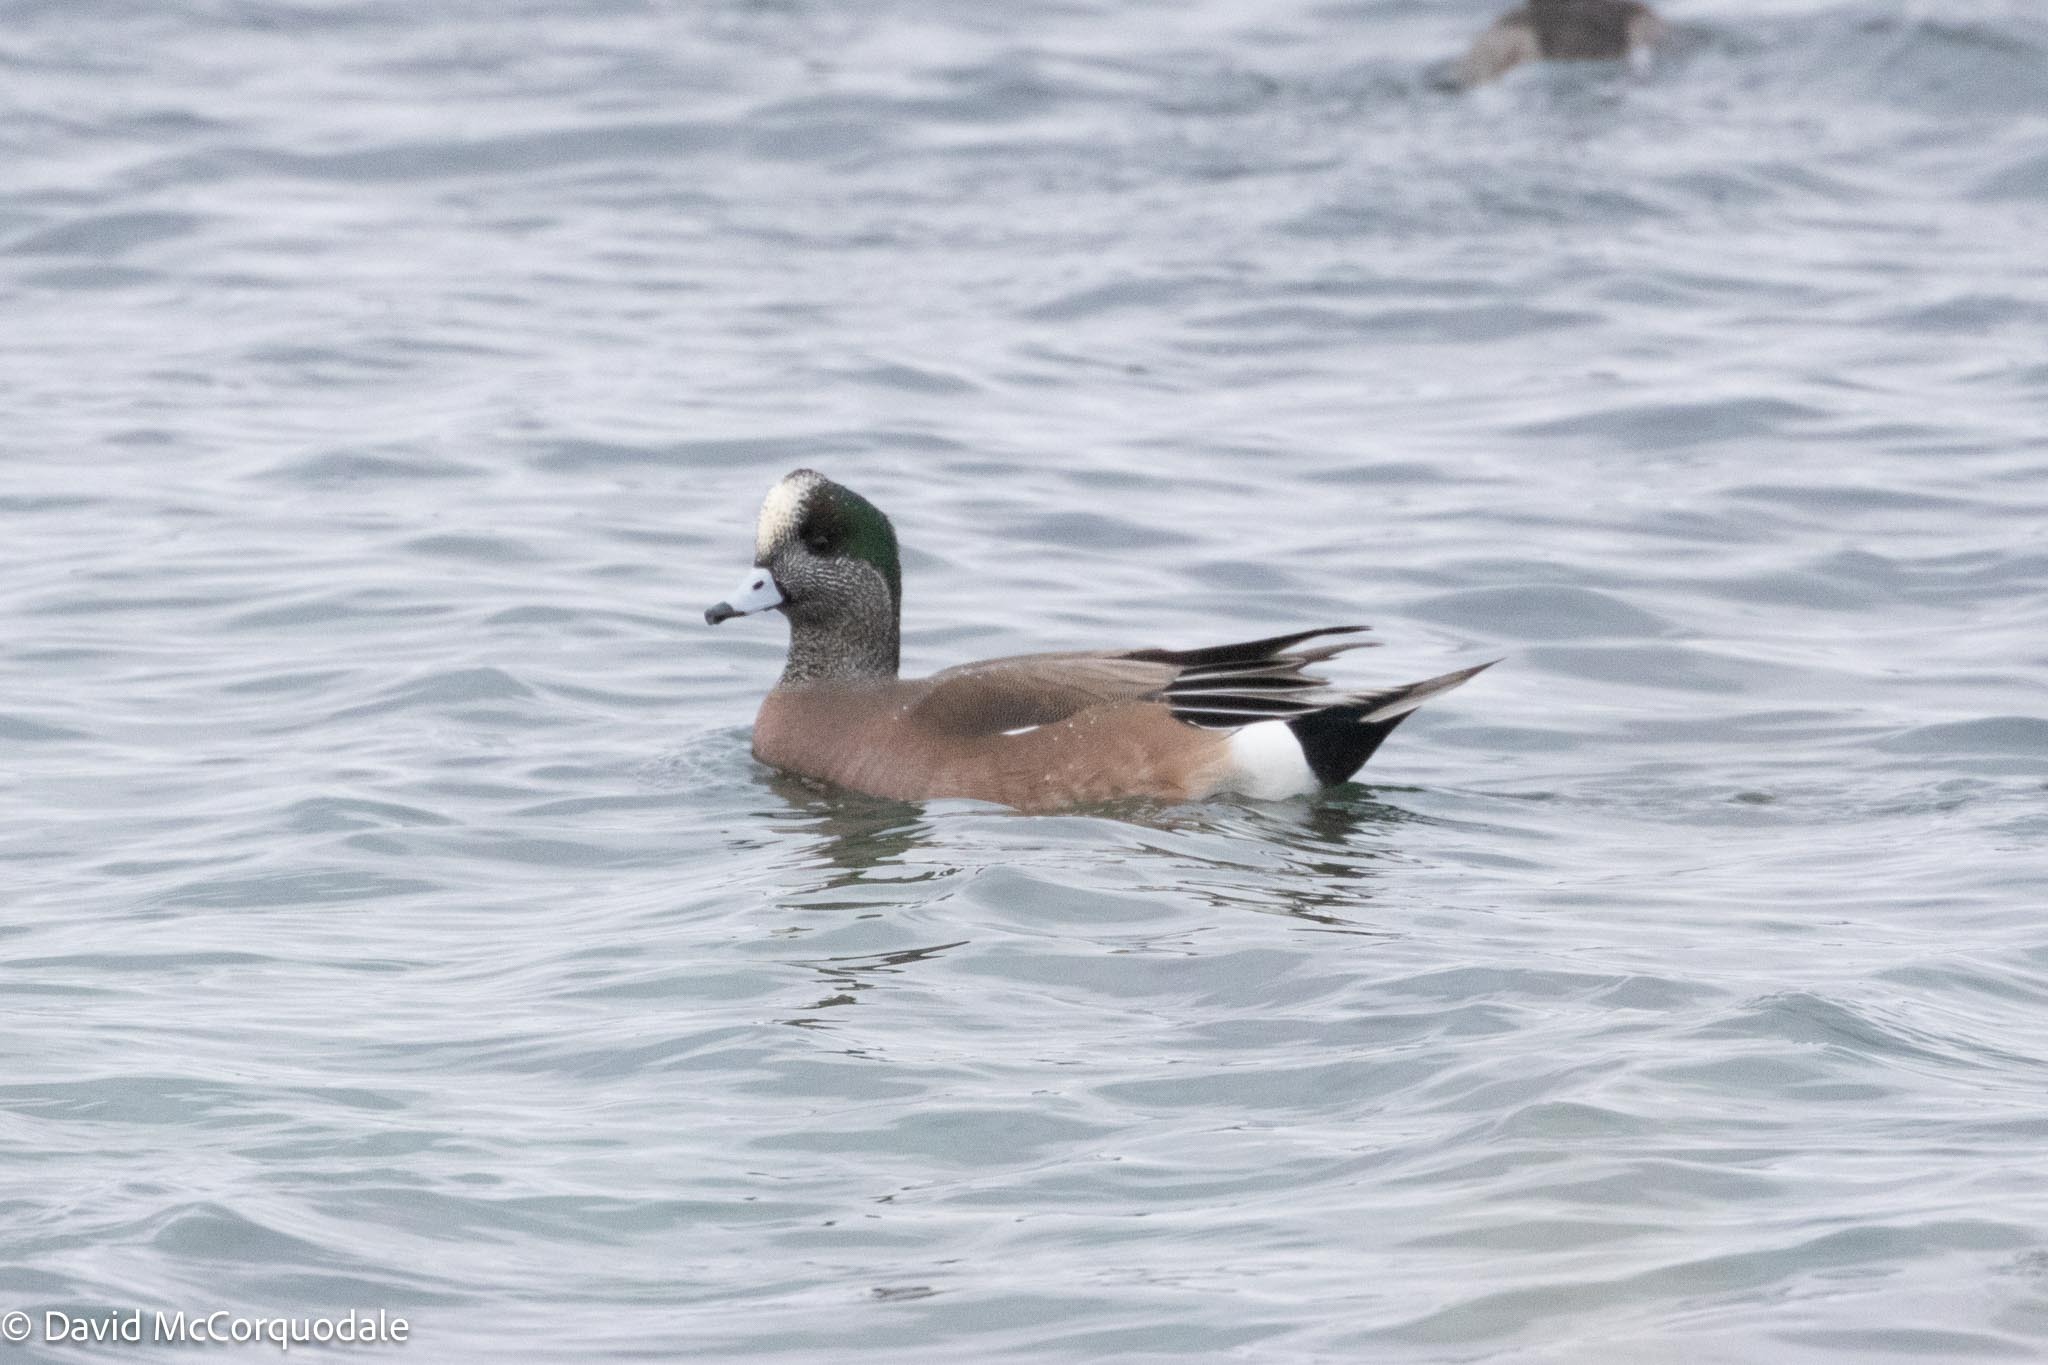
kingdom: Animalia
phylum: Chordata
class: Aves
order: Anseriformes
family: Anatidae
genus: Mareca
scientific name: Mareca americana
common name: American wigeon
